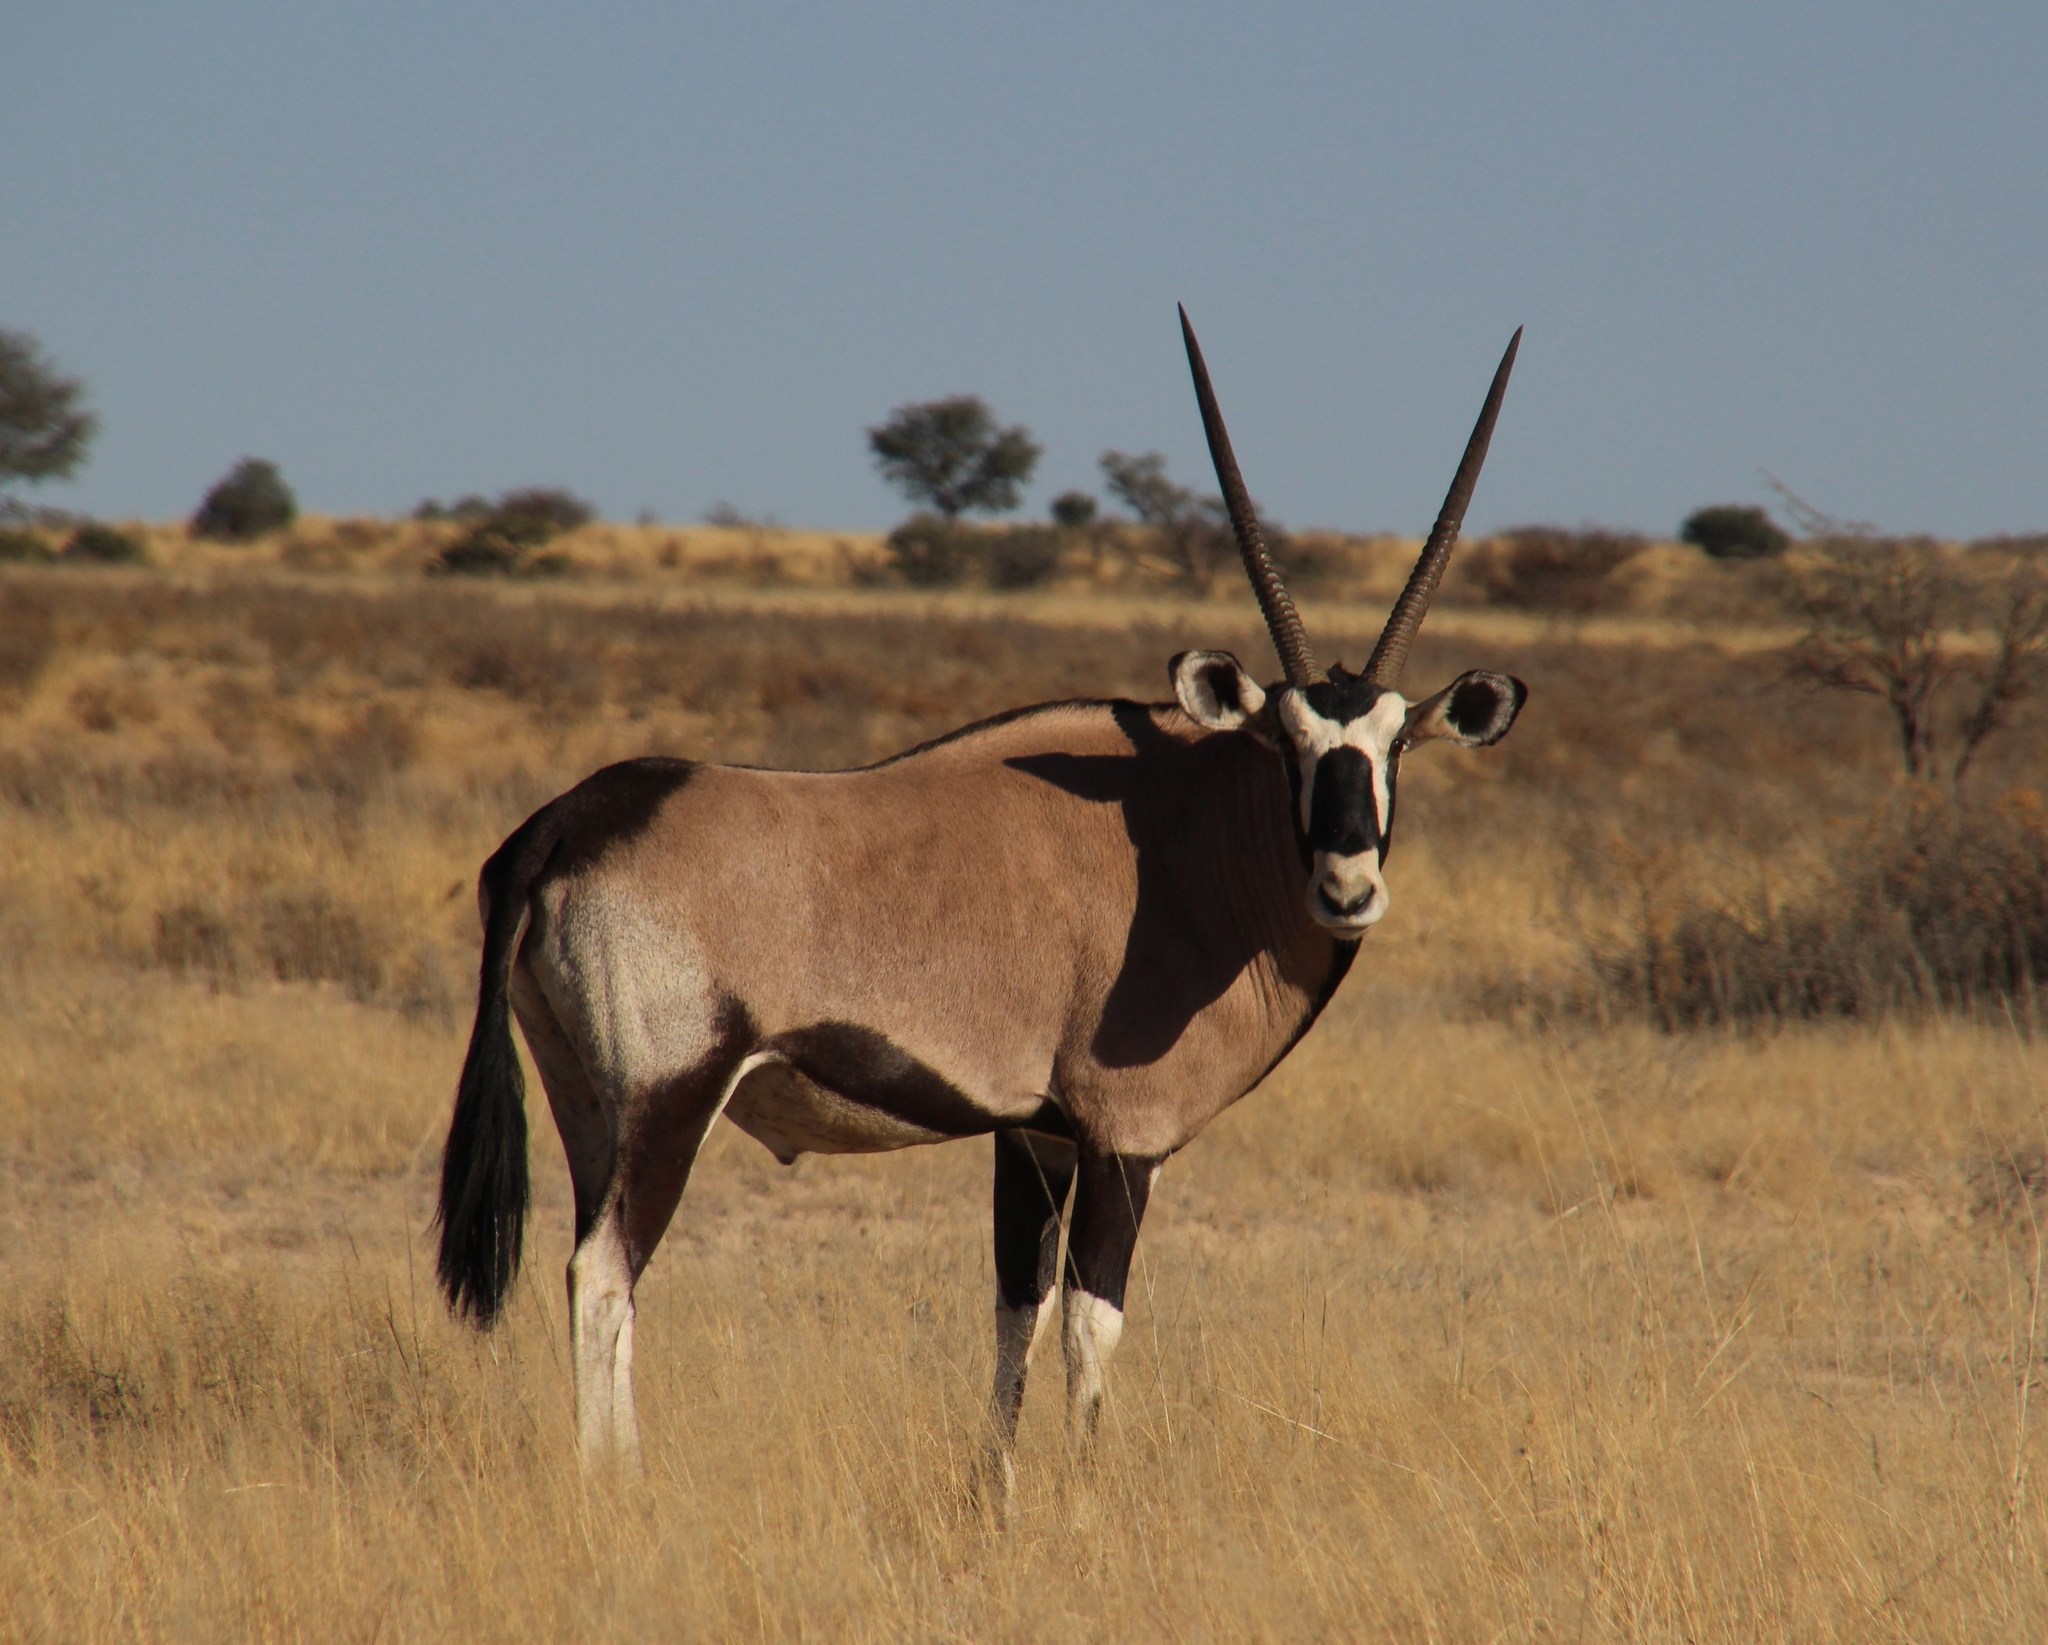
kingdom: Animalia
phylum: Chordata
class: Mammalia
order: Artiodactyla
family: Bovidae
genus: Oryx
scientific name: Oryx gazella
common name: Gemsbok
